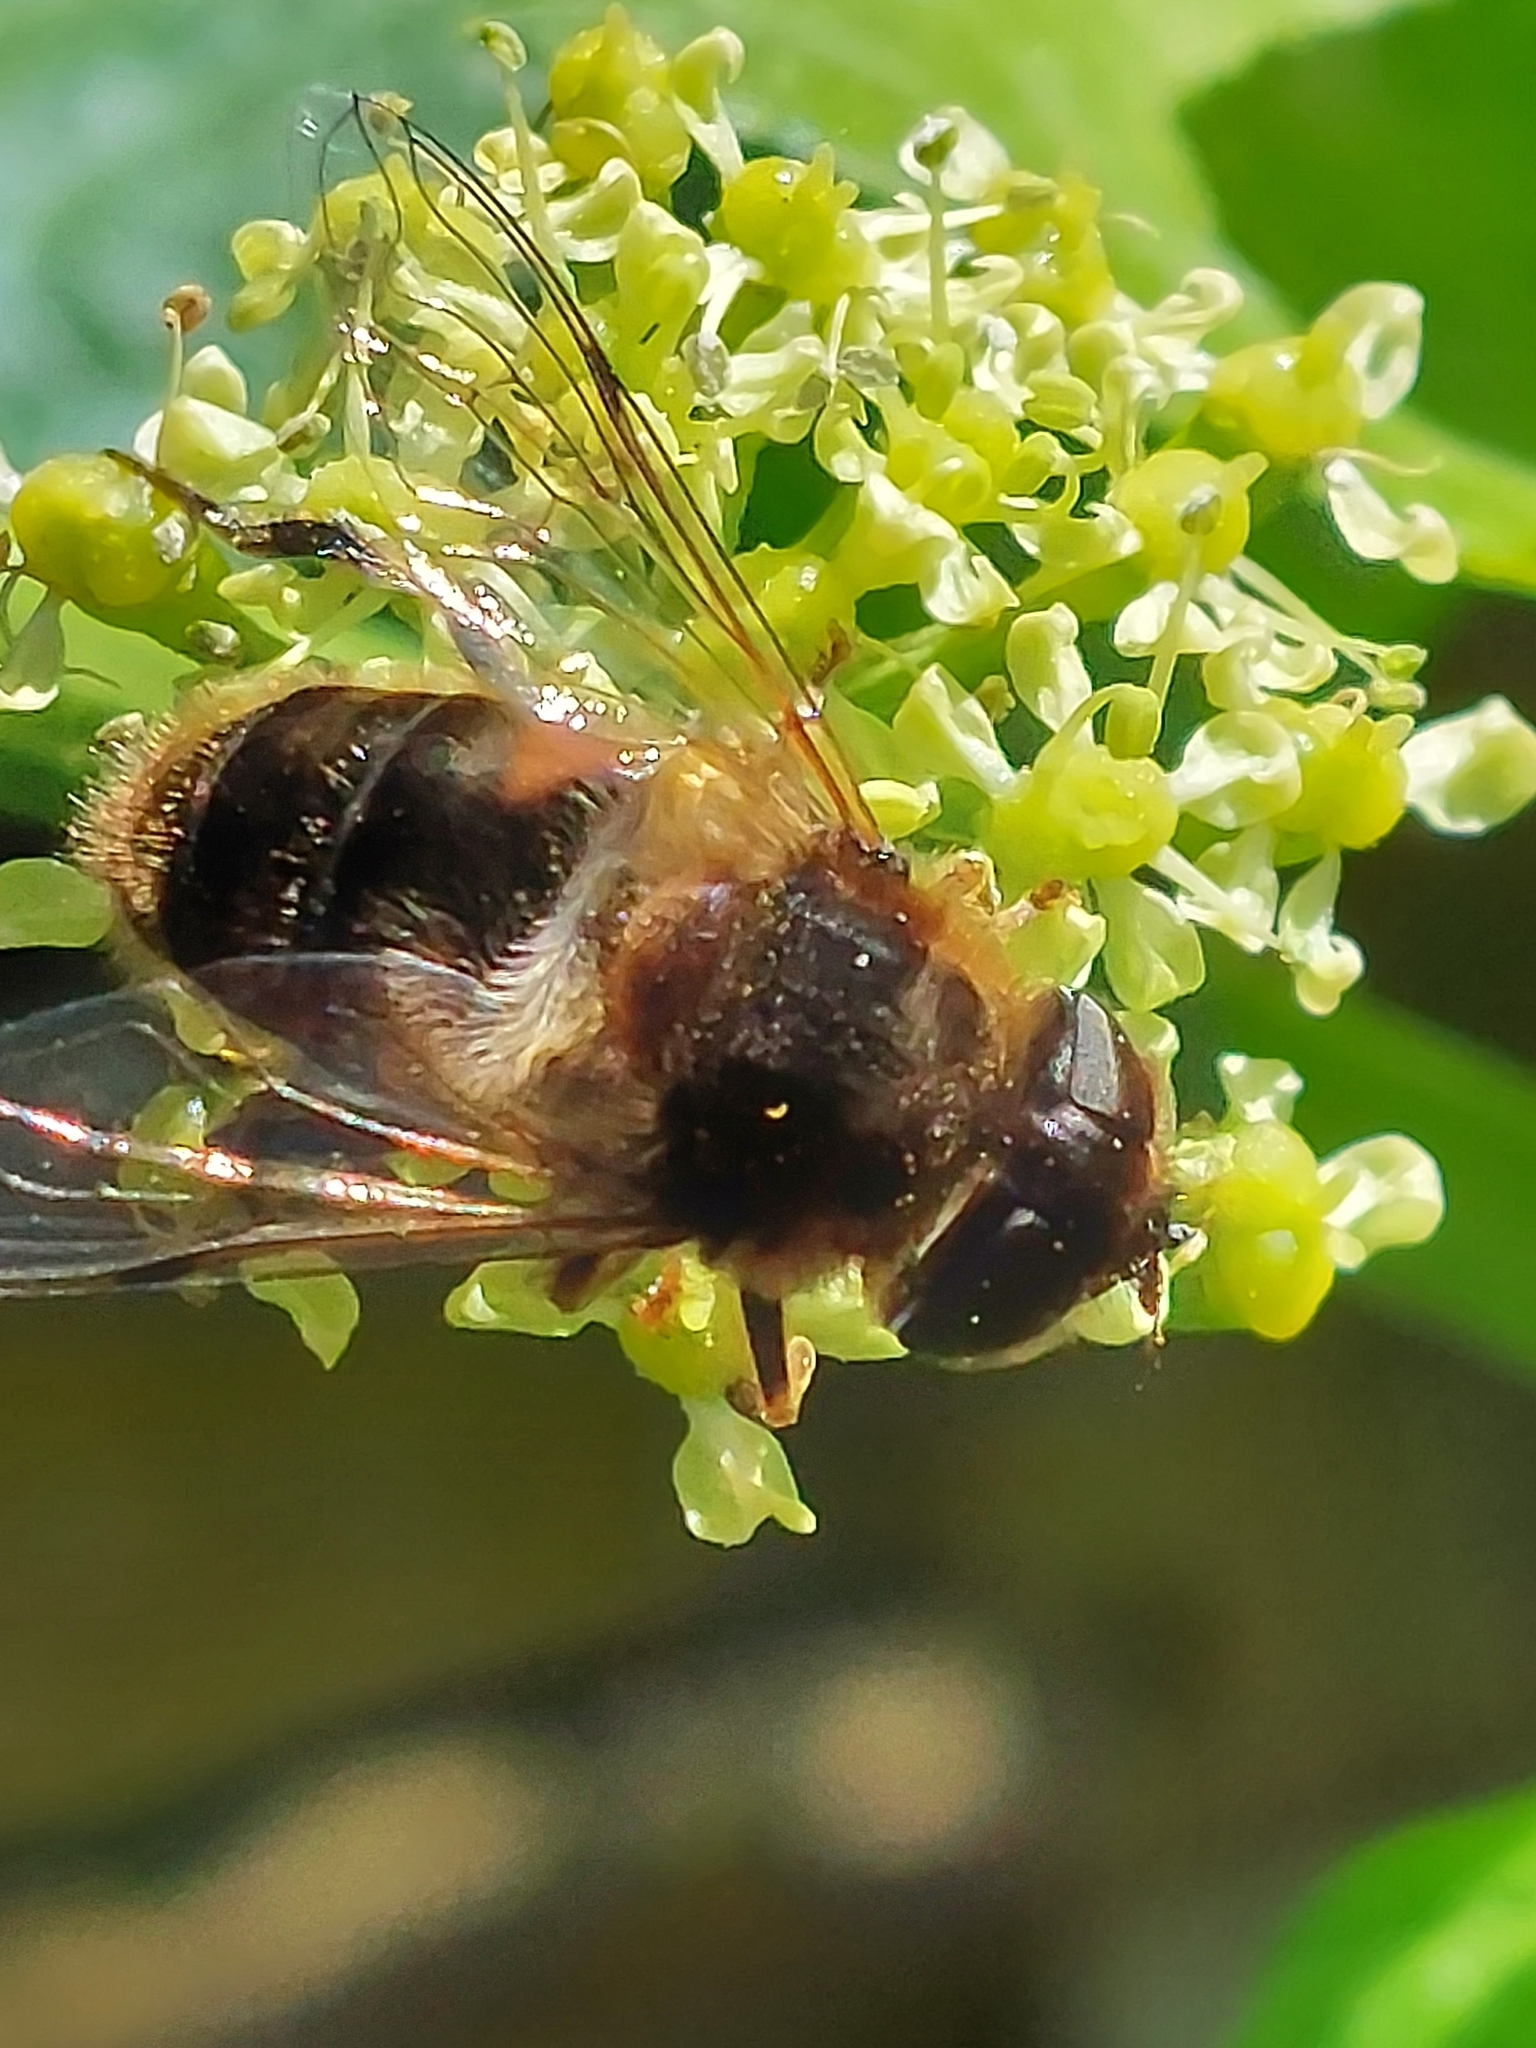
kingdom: Animalia
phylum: Arthropoda
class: Insecta
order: Diptera
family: Syrphidae
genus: Eristalis
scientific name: Eristalis pertinax
